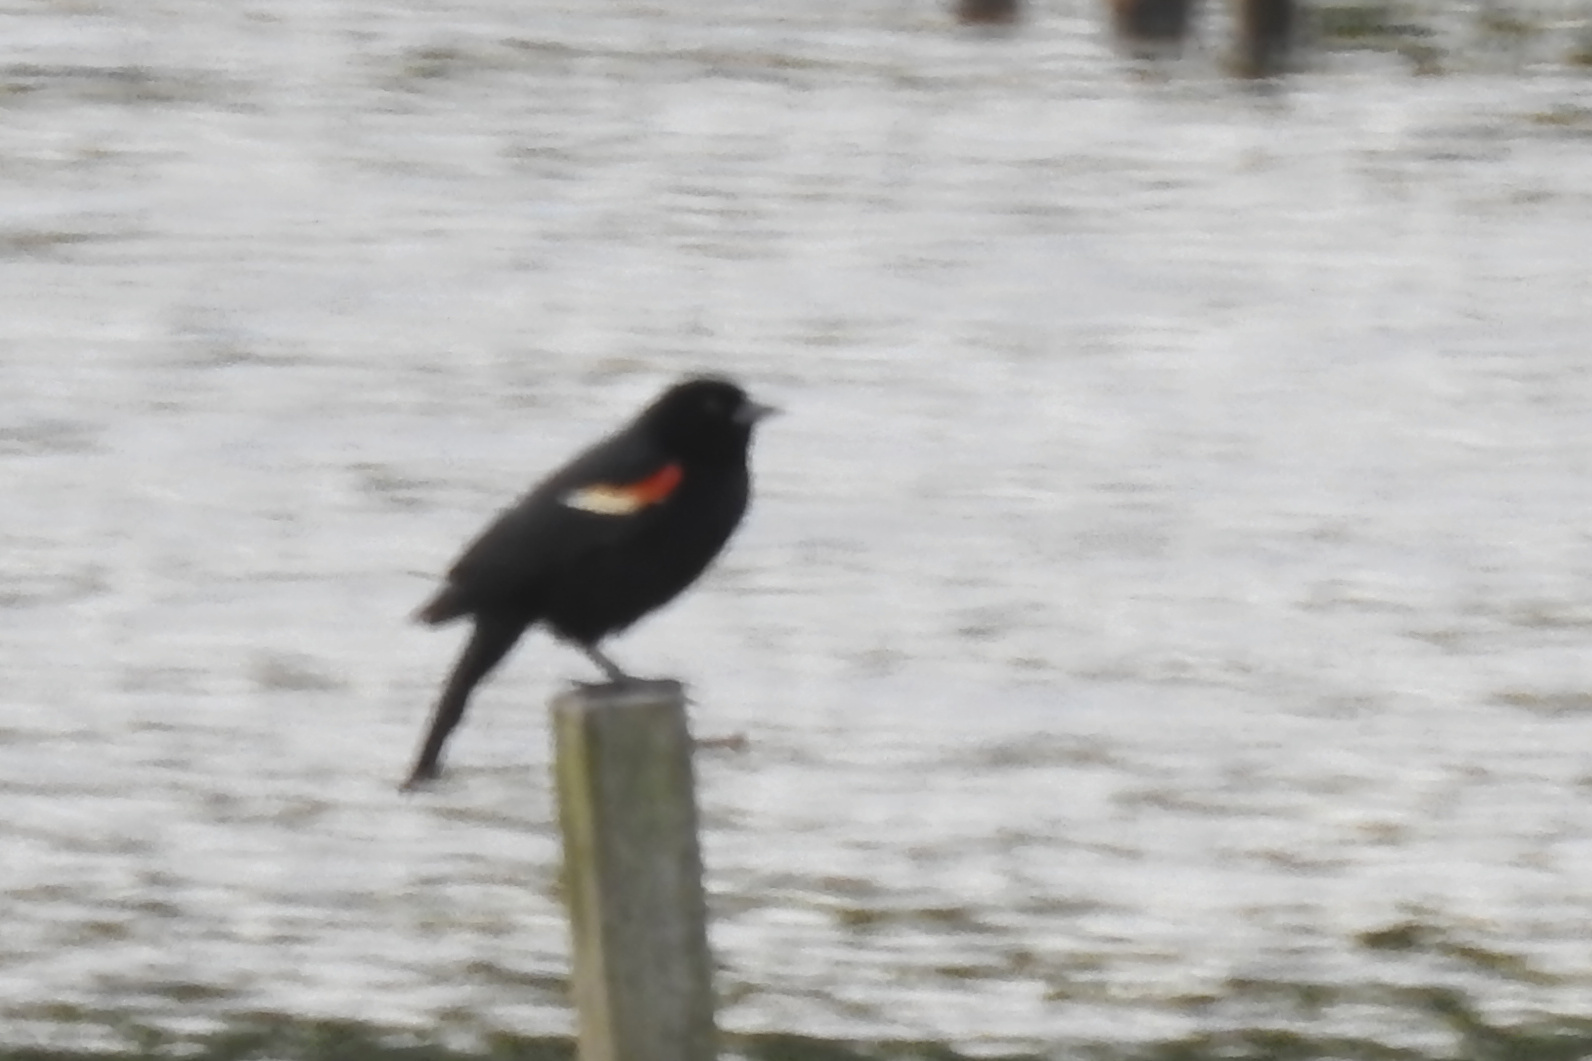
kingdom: Animalia
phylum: Chordata
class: Aves
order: Passeriformes
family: Icteridae
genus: Agelaius
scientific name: Agelaius phoeniceus
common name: Red-winged blackbird
